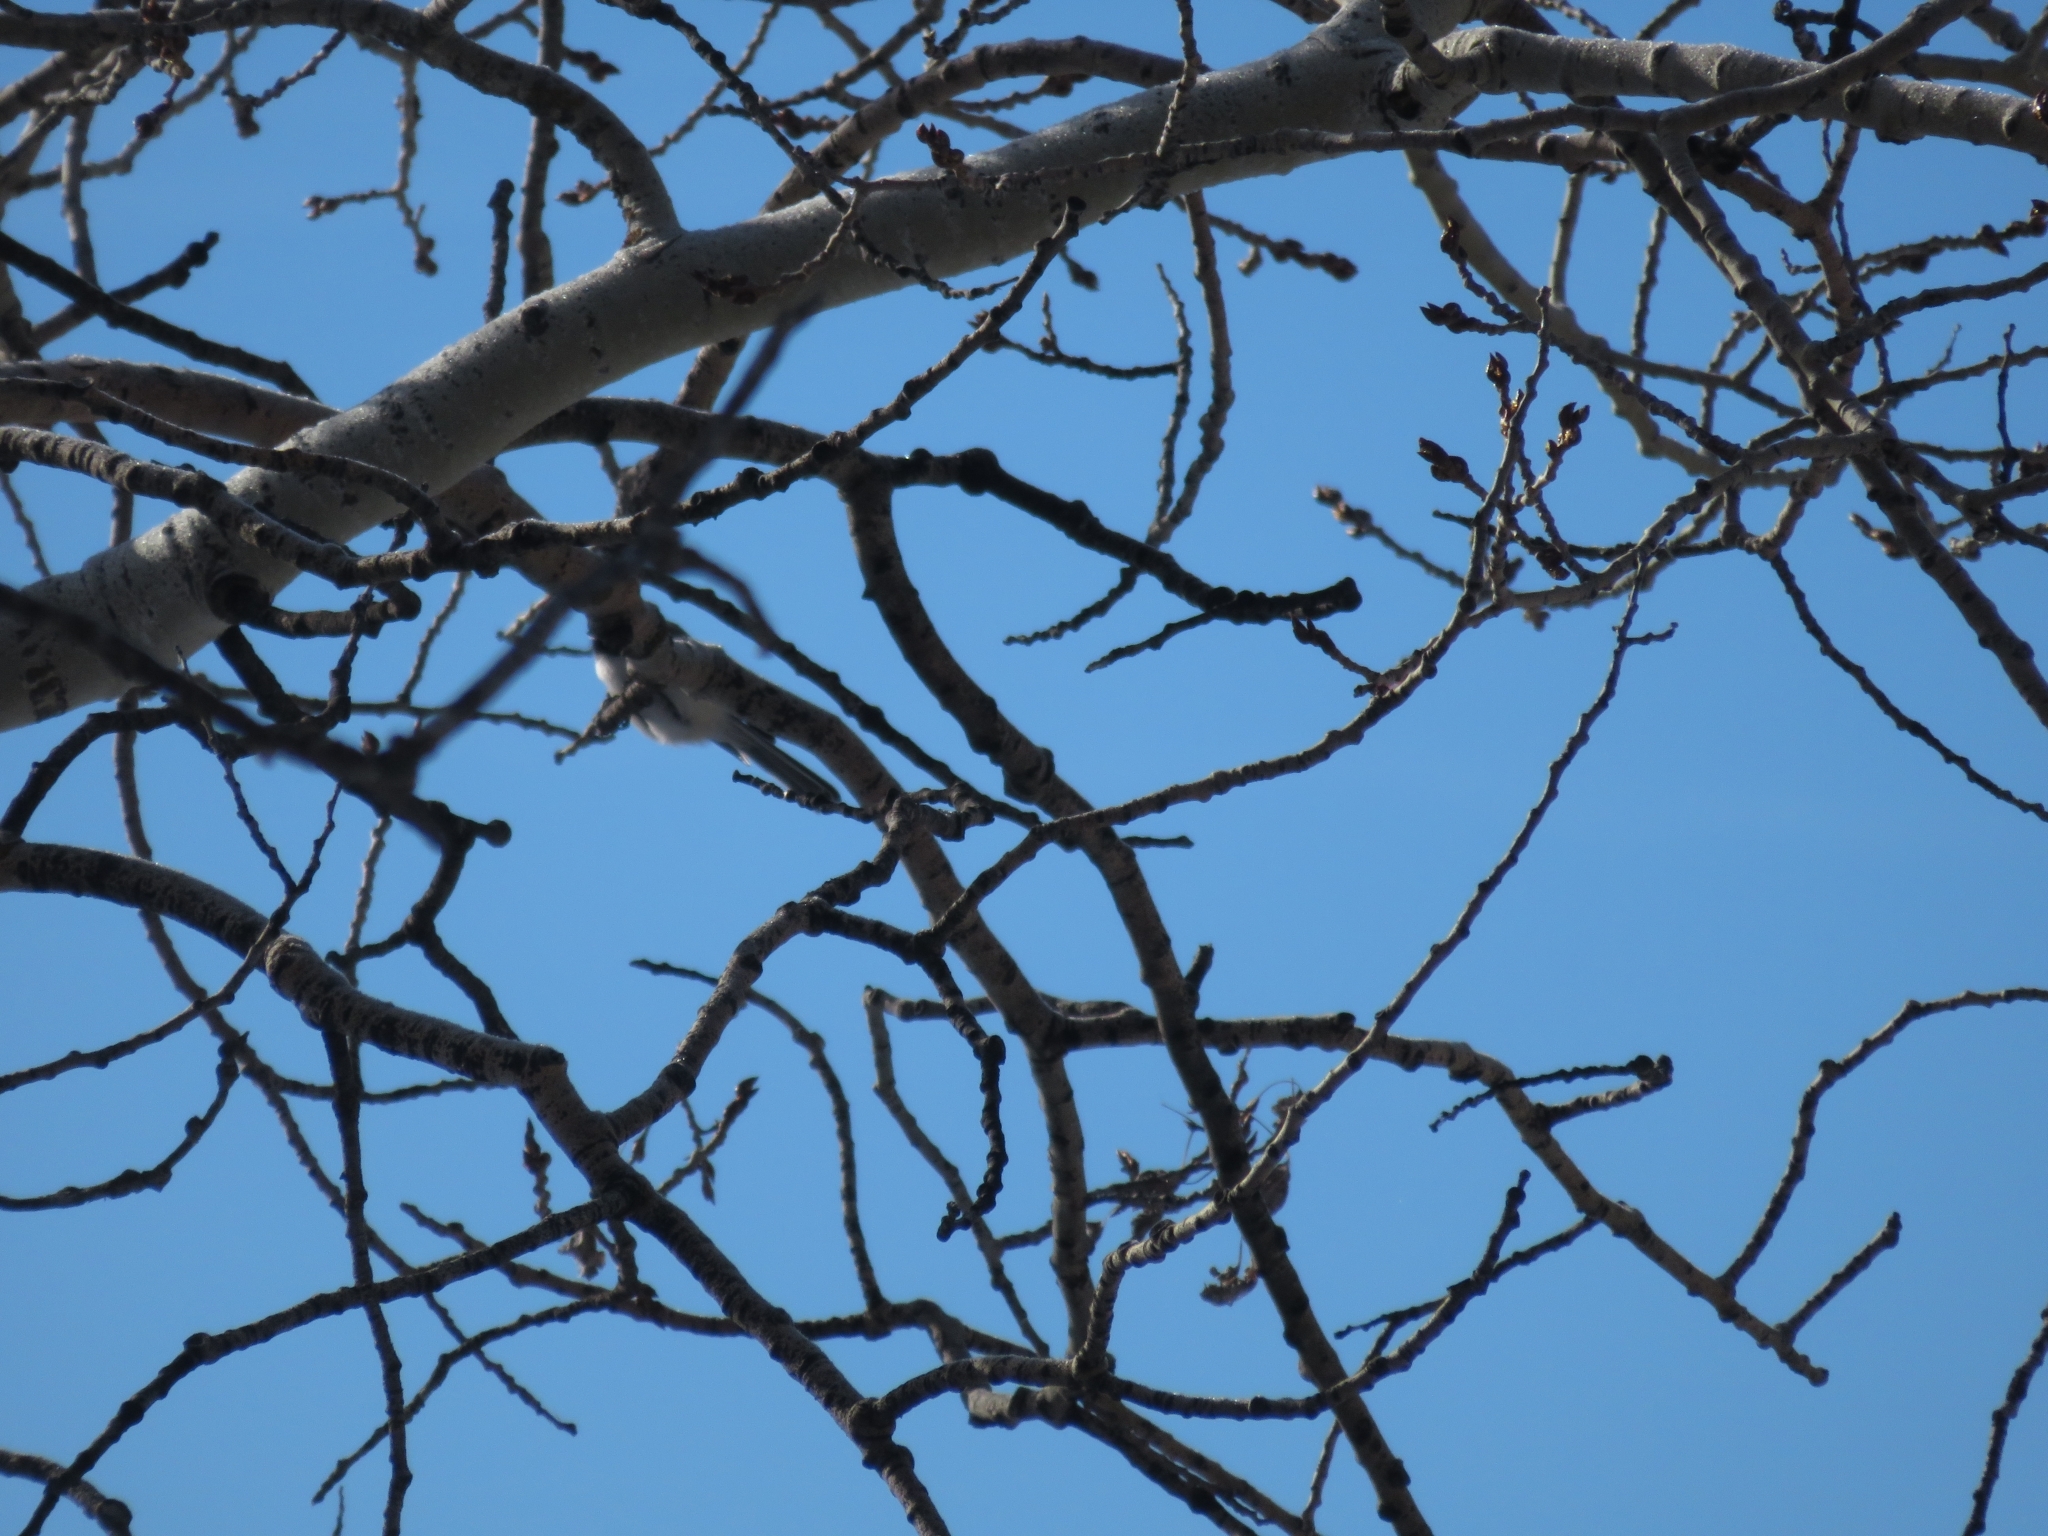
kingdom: Animalia
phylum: Chordata
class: Aves
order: Passeriformes
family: Paridae
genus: Poecile
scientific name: Poecile atricapillus
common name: Black-capped chickadee
